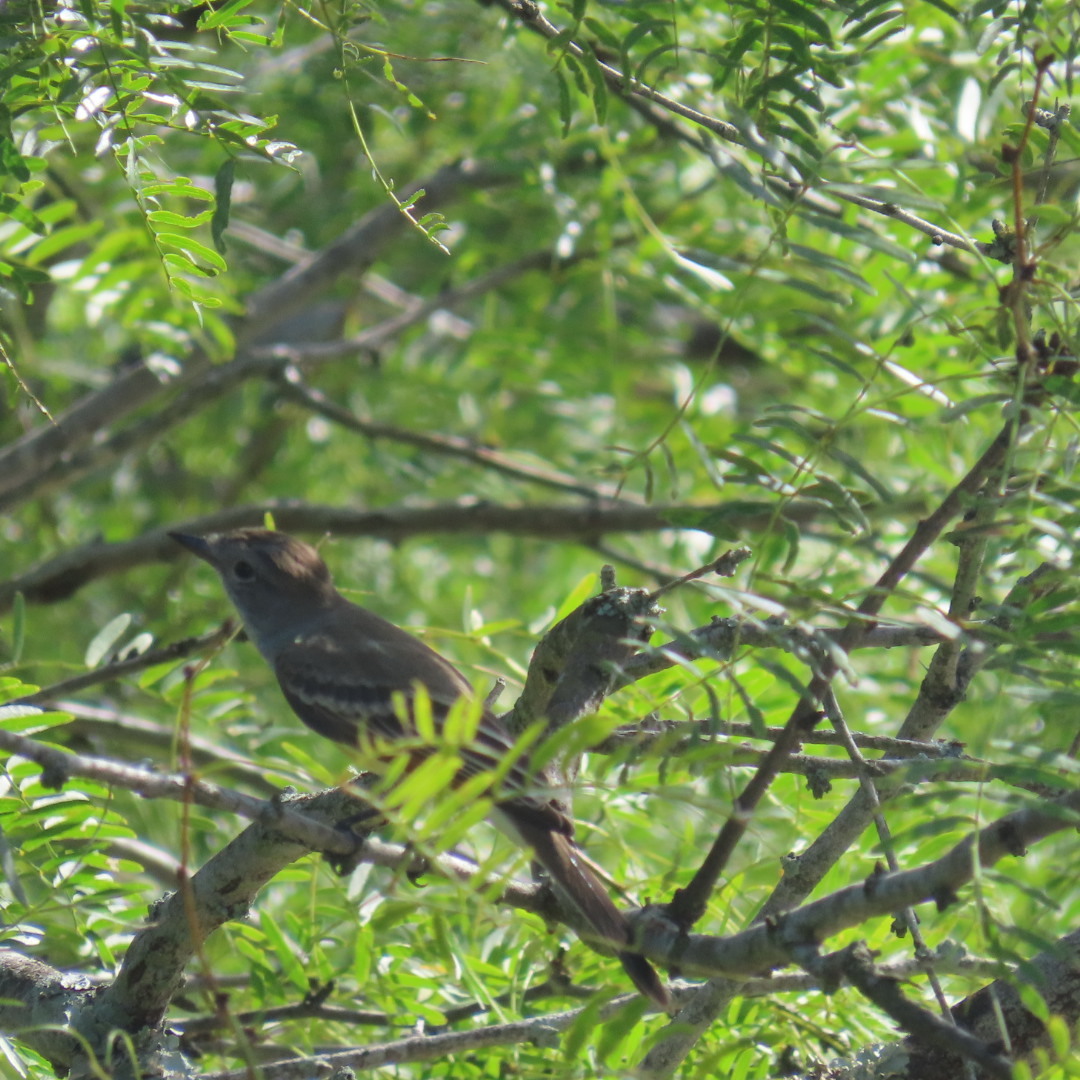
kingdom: Animalia
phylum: Chordata
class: Aves
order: Passeriformes
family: Tyrannidae
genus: Myiarchus
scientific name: Myiarchus crinitus
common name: Great crested flycatcher
